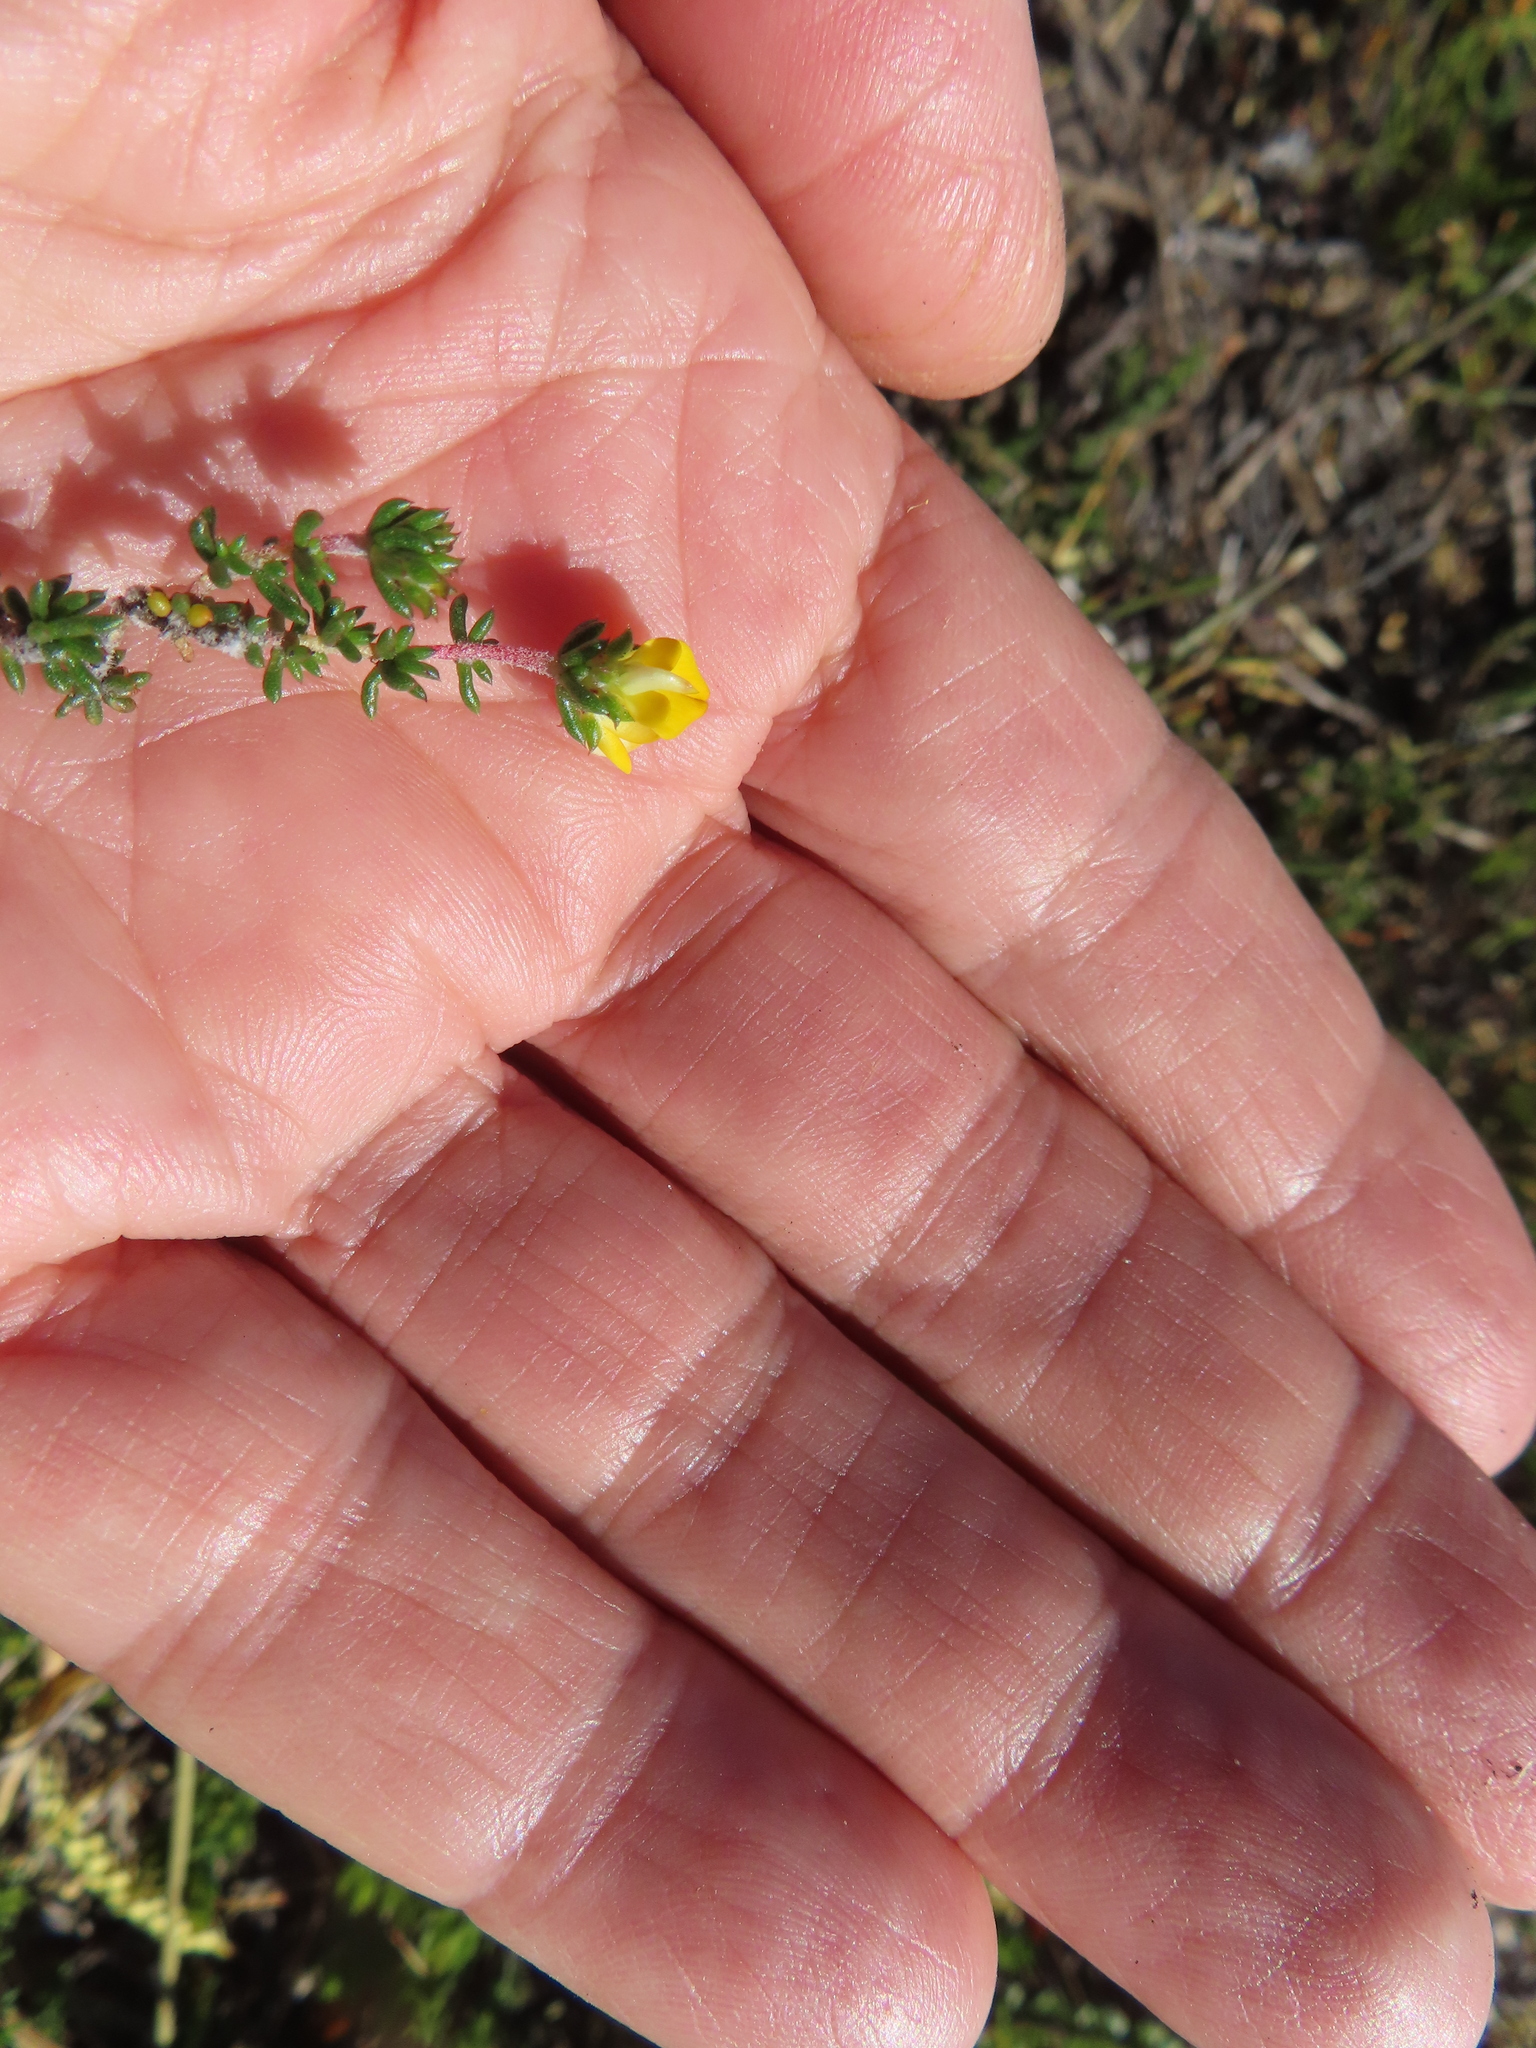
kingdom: Plantae
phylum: Tracheophyta
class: Magnoliopsida
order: Fabales
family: Fabaceae
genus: Aspalathus
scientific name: Aspalathus crassisepala
